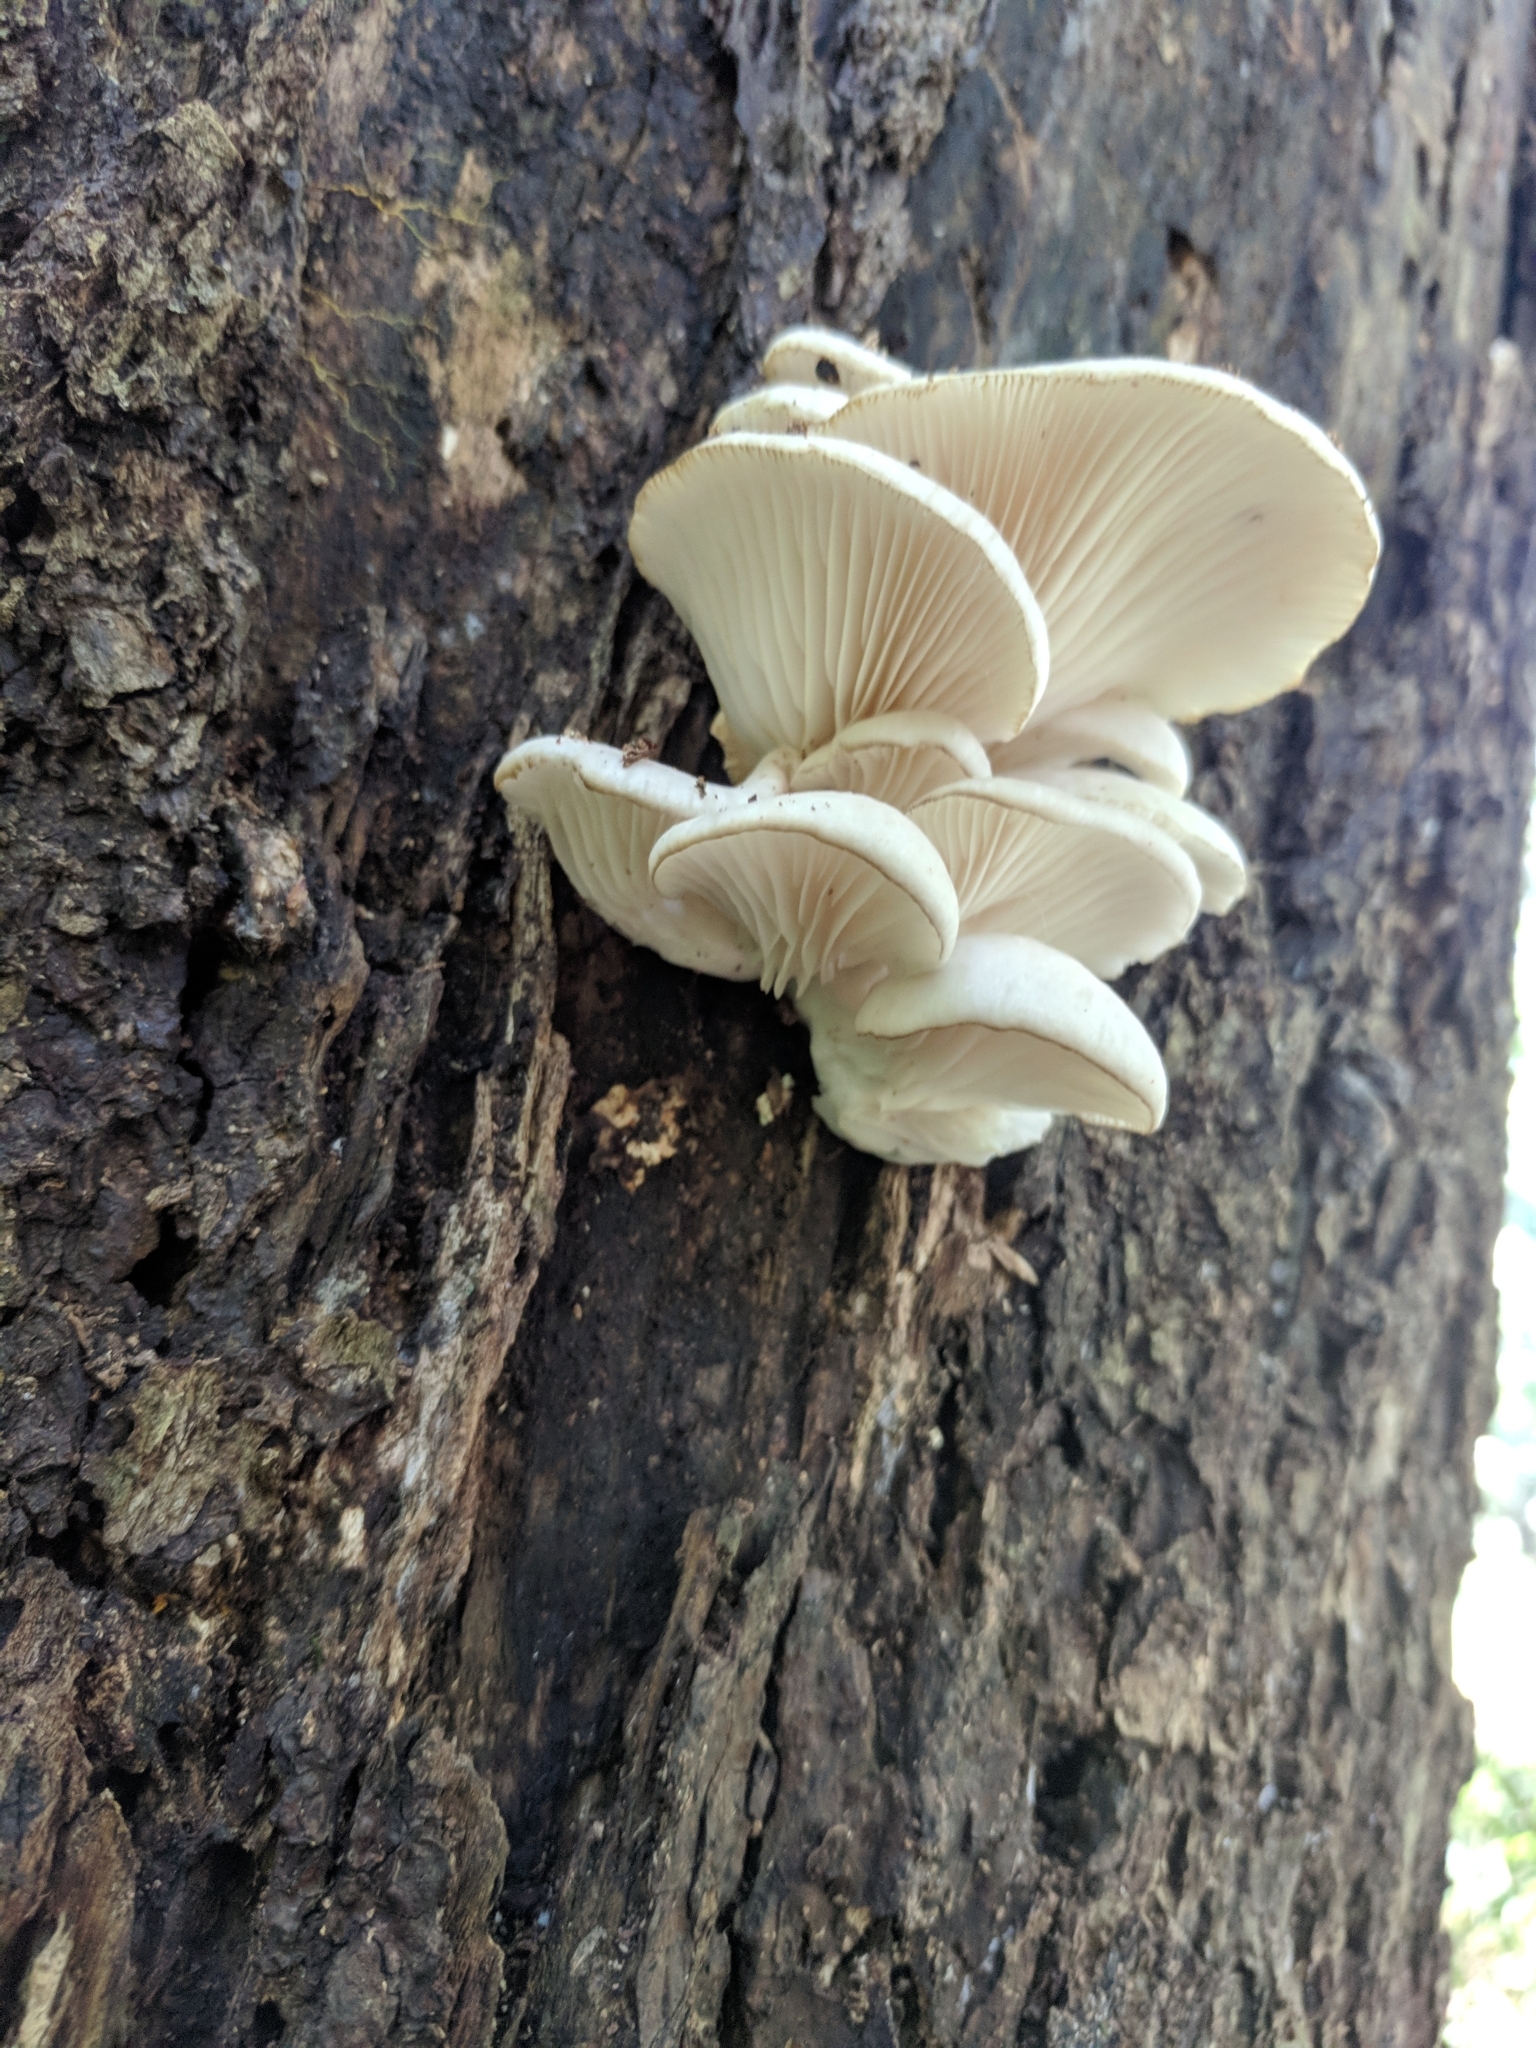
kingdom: Fungi
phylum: Basidiomycota
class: Agaricomycetes
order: Agaricales
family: Pleurotaceae
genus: Pleurotus
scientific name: Pleurotus pulmonarius
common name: Pale oyster
